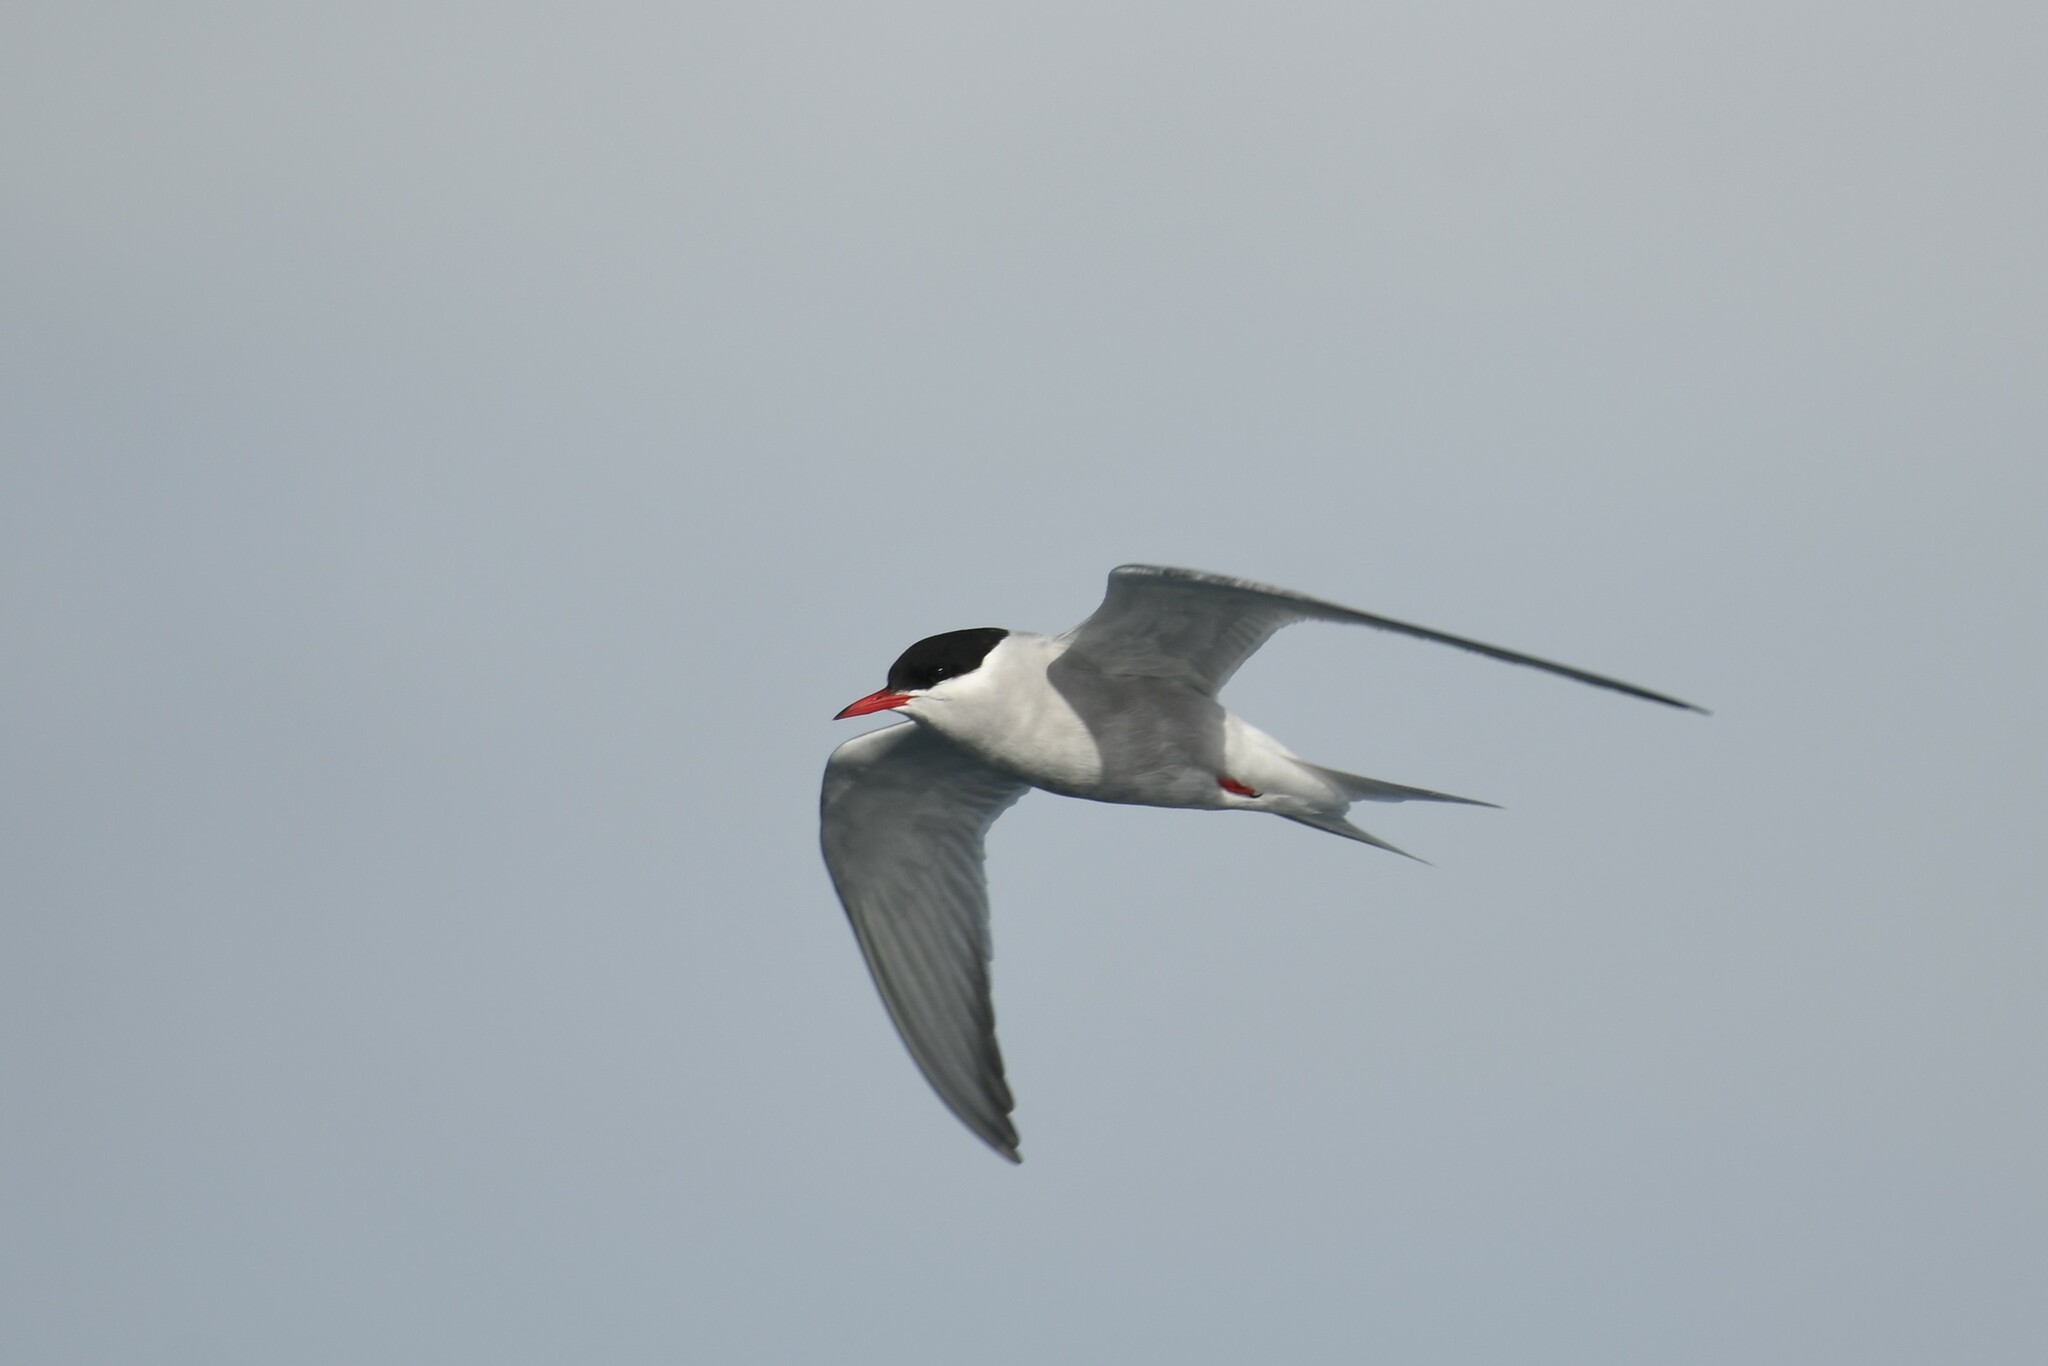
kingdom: Animalia
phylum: Chordata
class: Aves
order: Charadriiformes
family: Laridae
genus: Sterna
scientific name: Sterna vittata
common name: Antarctic tern
